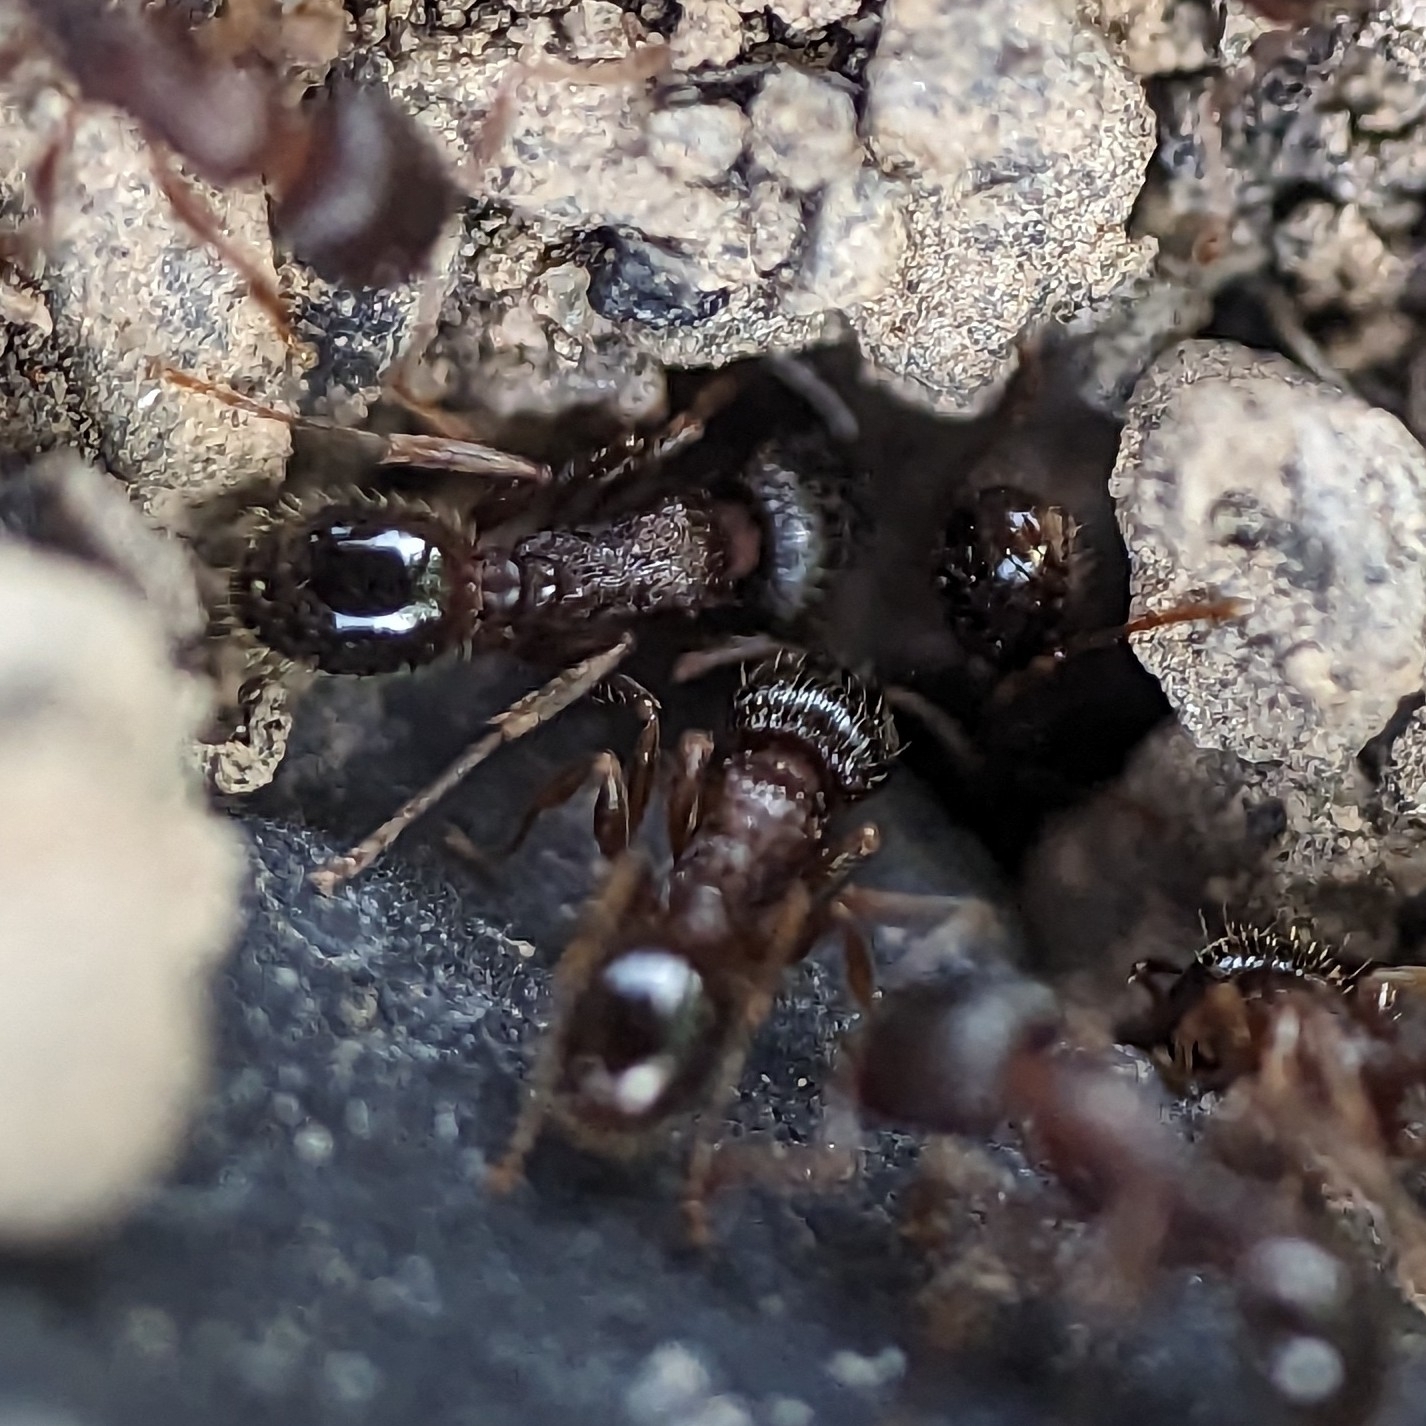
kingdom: Animalia
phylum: Arthropoda
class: Insecta
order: Hymenoptera
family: Formicidae
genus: Tetramorium
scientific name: Tetramorium immigrans
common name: Pavement ant
